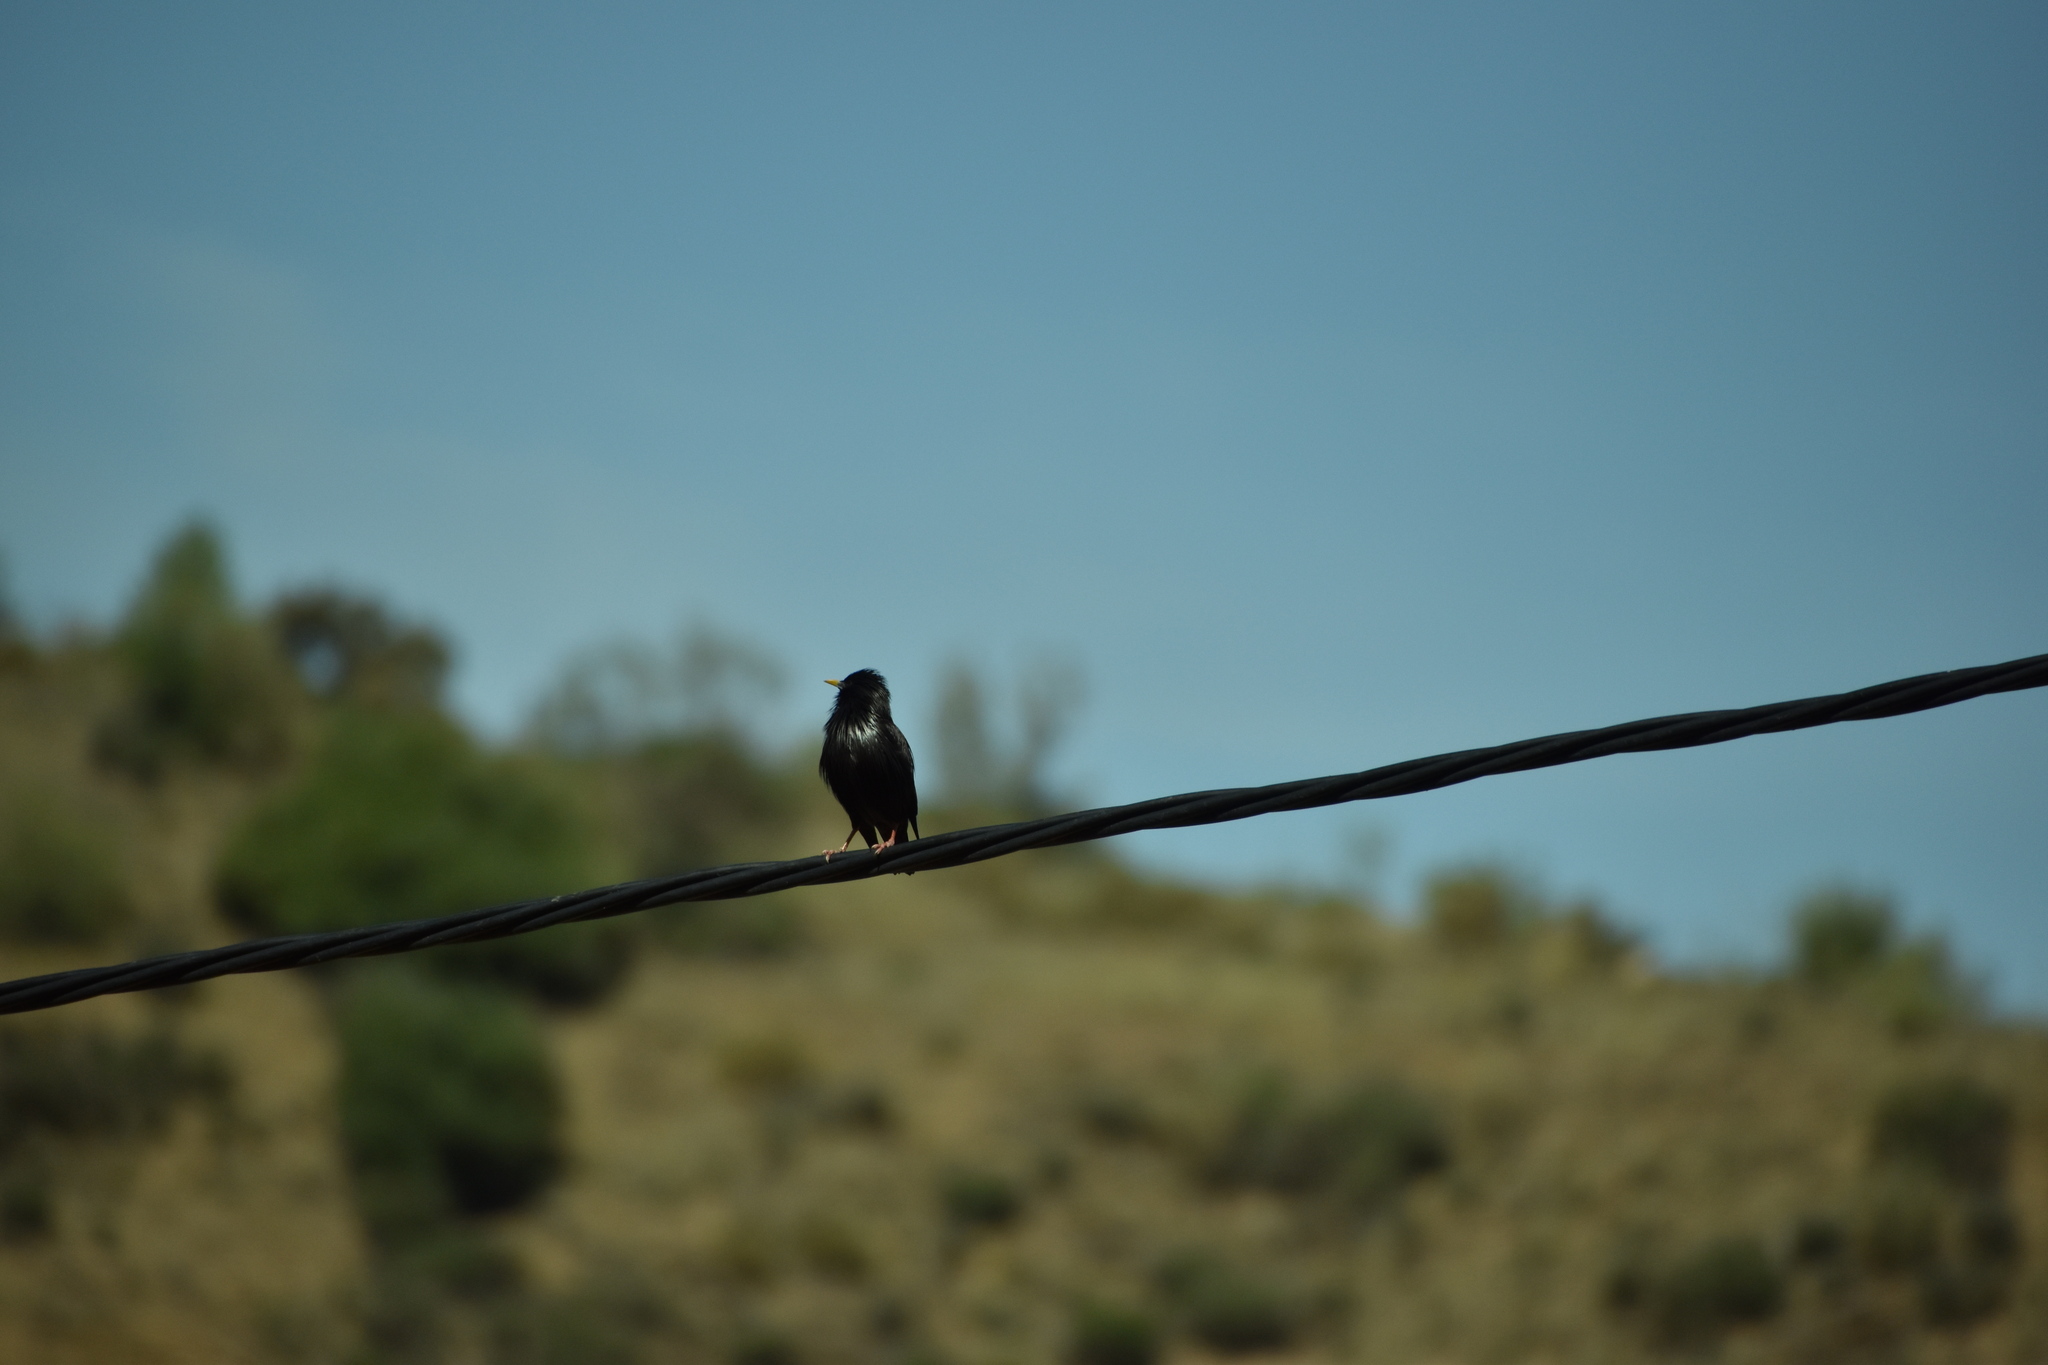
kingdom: Animalia
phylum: Chordata
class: Aves
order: Passeriformes
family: Sturnidae
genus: Sturnus
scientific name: Sturnus unicolor
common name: Spotless starling
